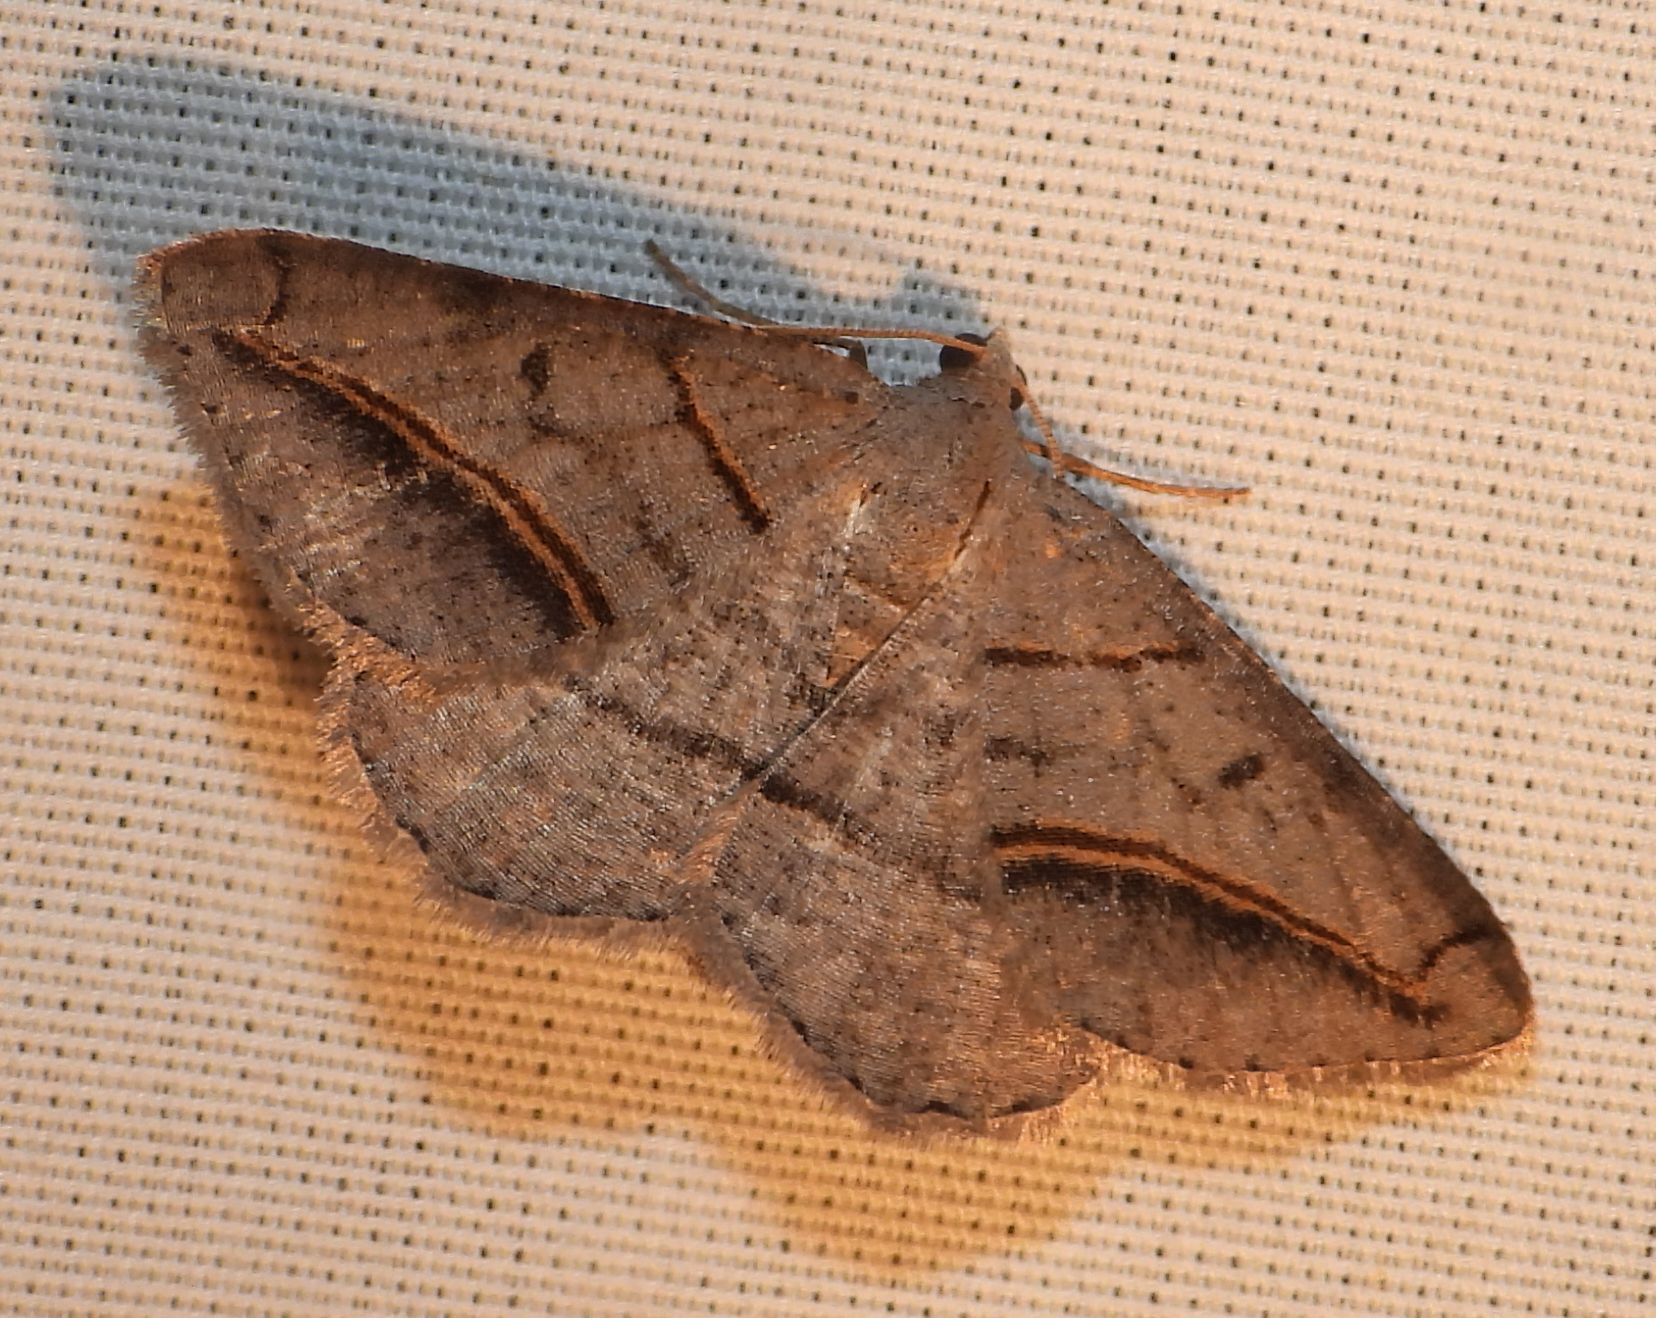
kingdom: Animalia
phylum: Arthropoda
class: Insecta
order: Lepidoptera
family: Geometridae
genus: Digrammia
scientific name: Digrammia mellistrigata
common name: Yellow-lined angle
